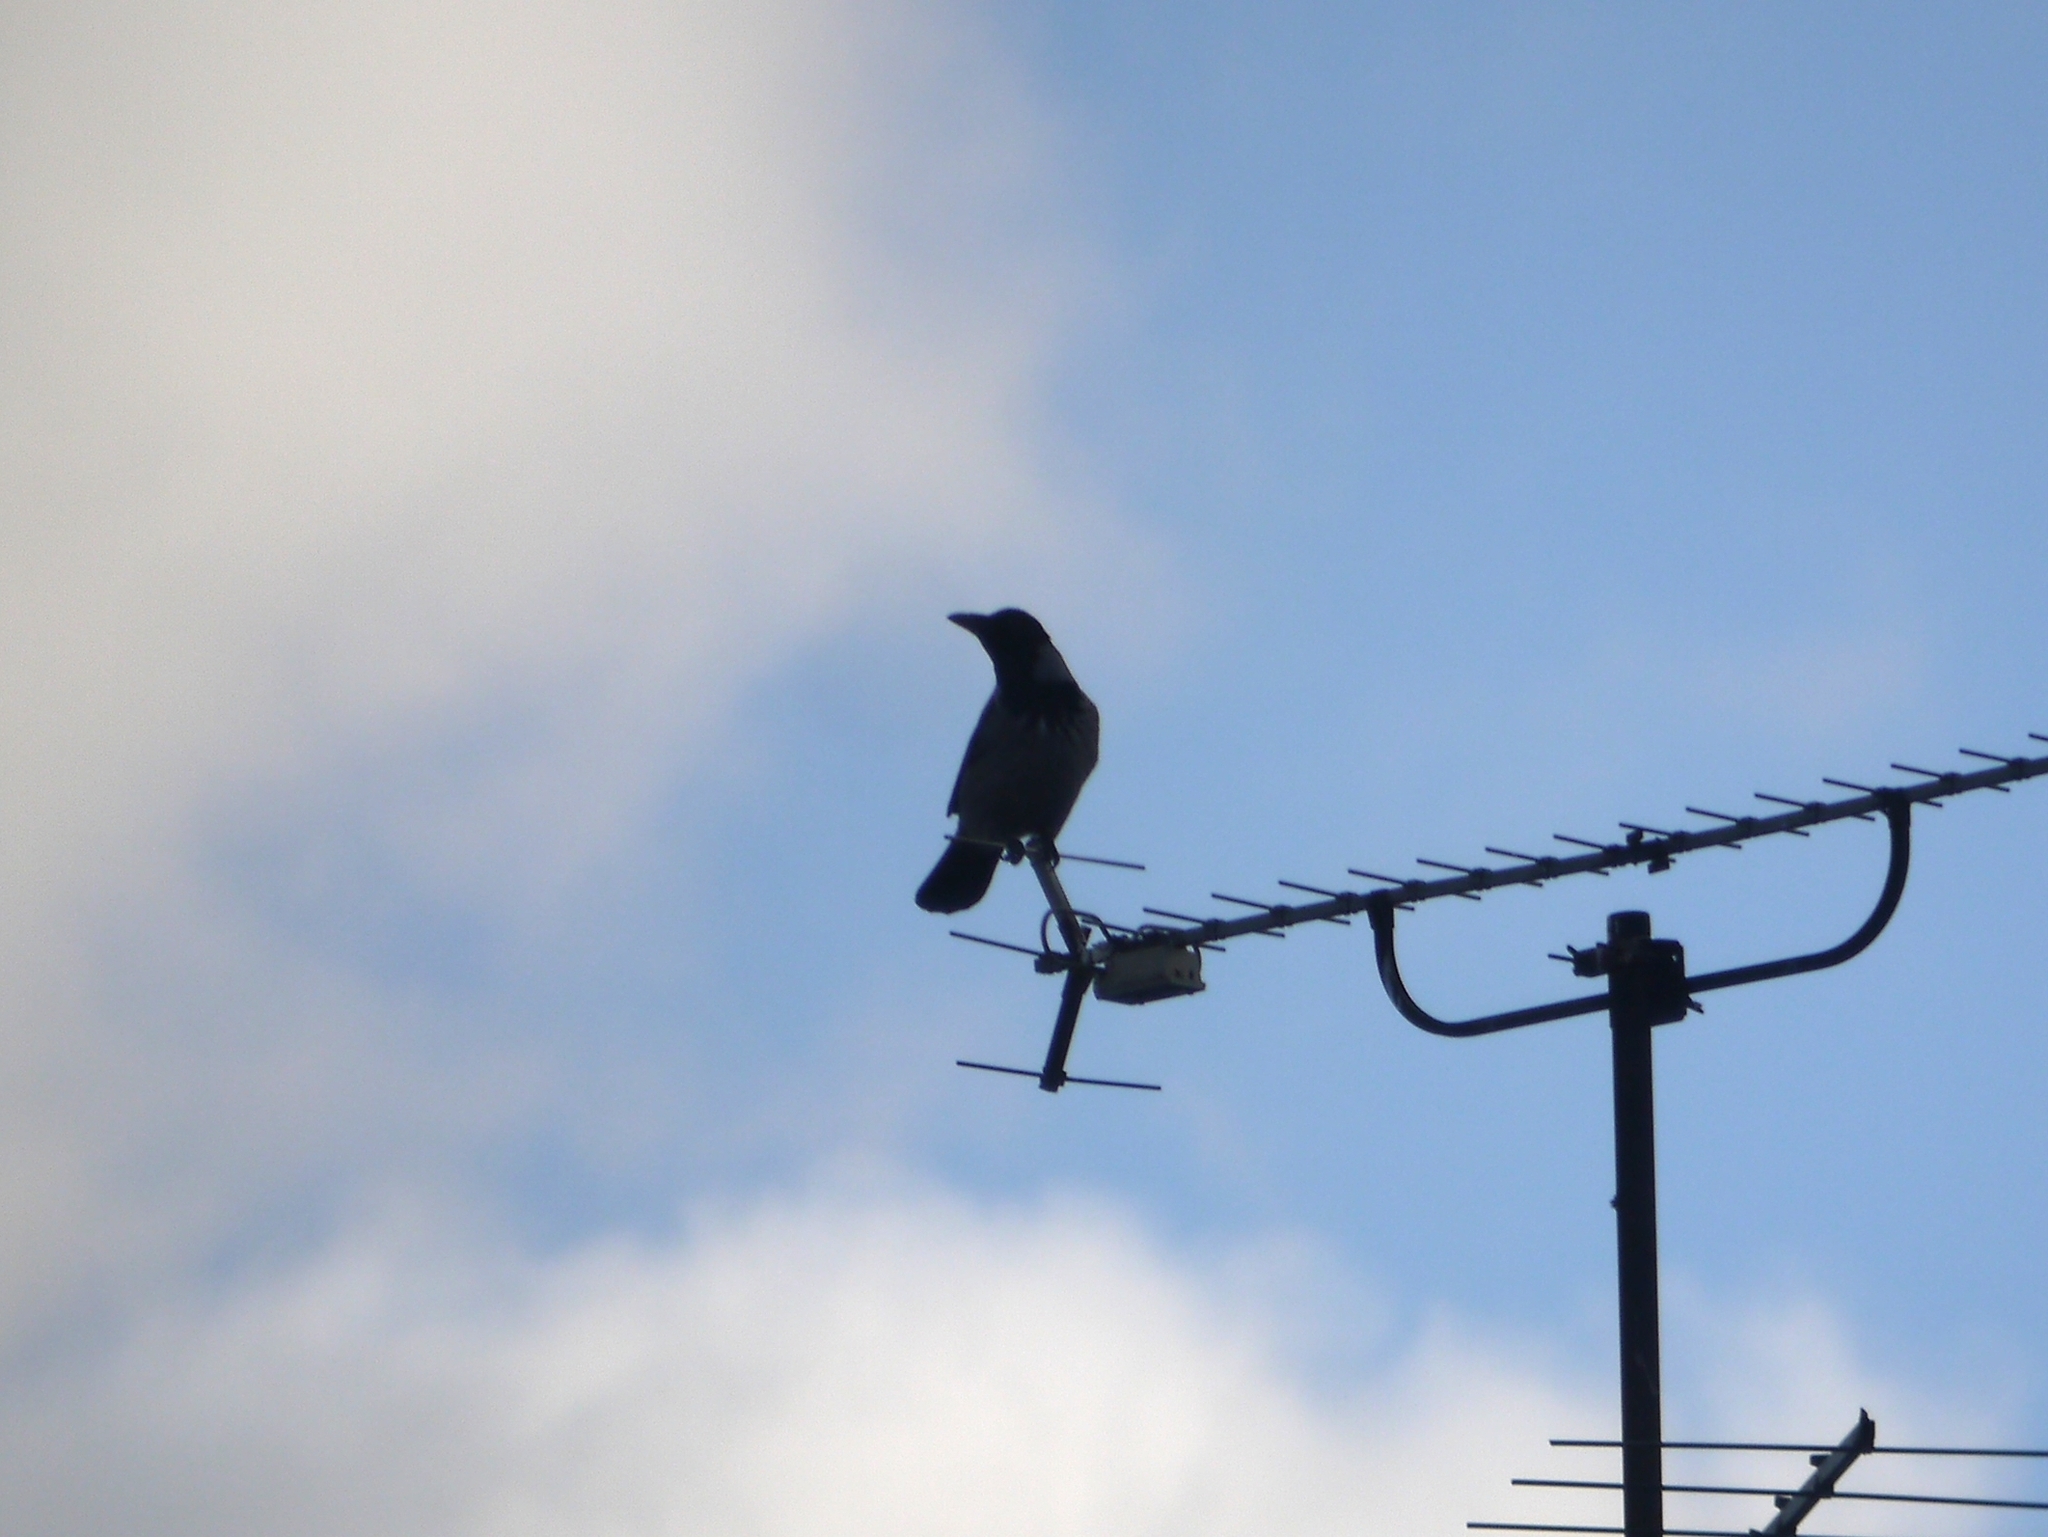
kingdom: Animalia
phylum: Chordata
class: Aves
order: Passeriformes
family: Corvidae
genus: Corvus
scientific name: Corvus cornix
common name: Hooded crow
